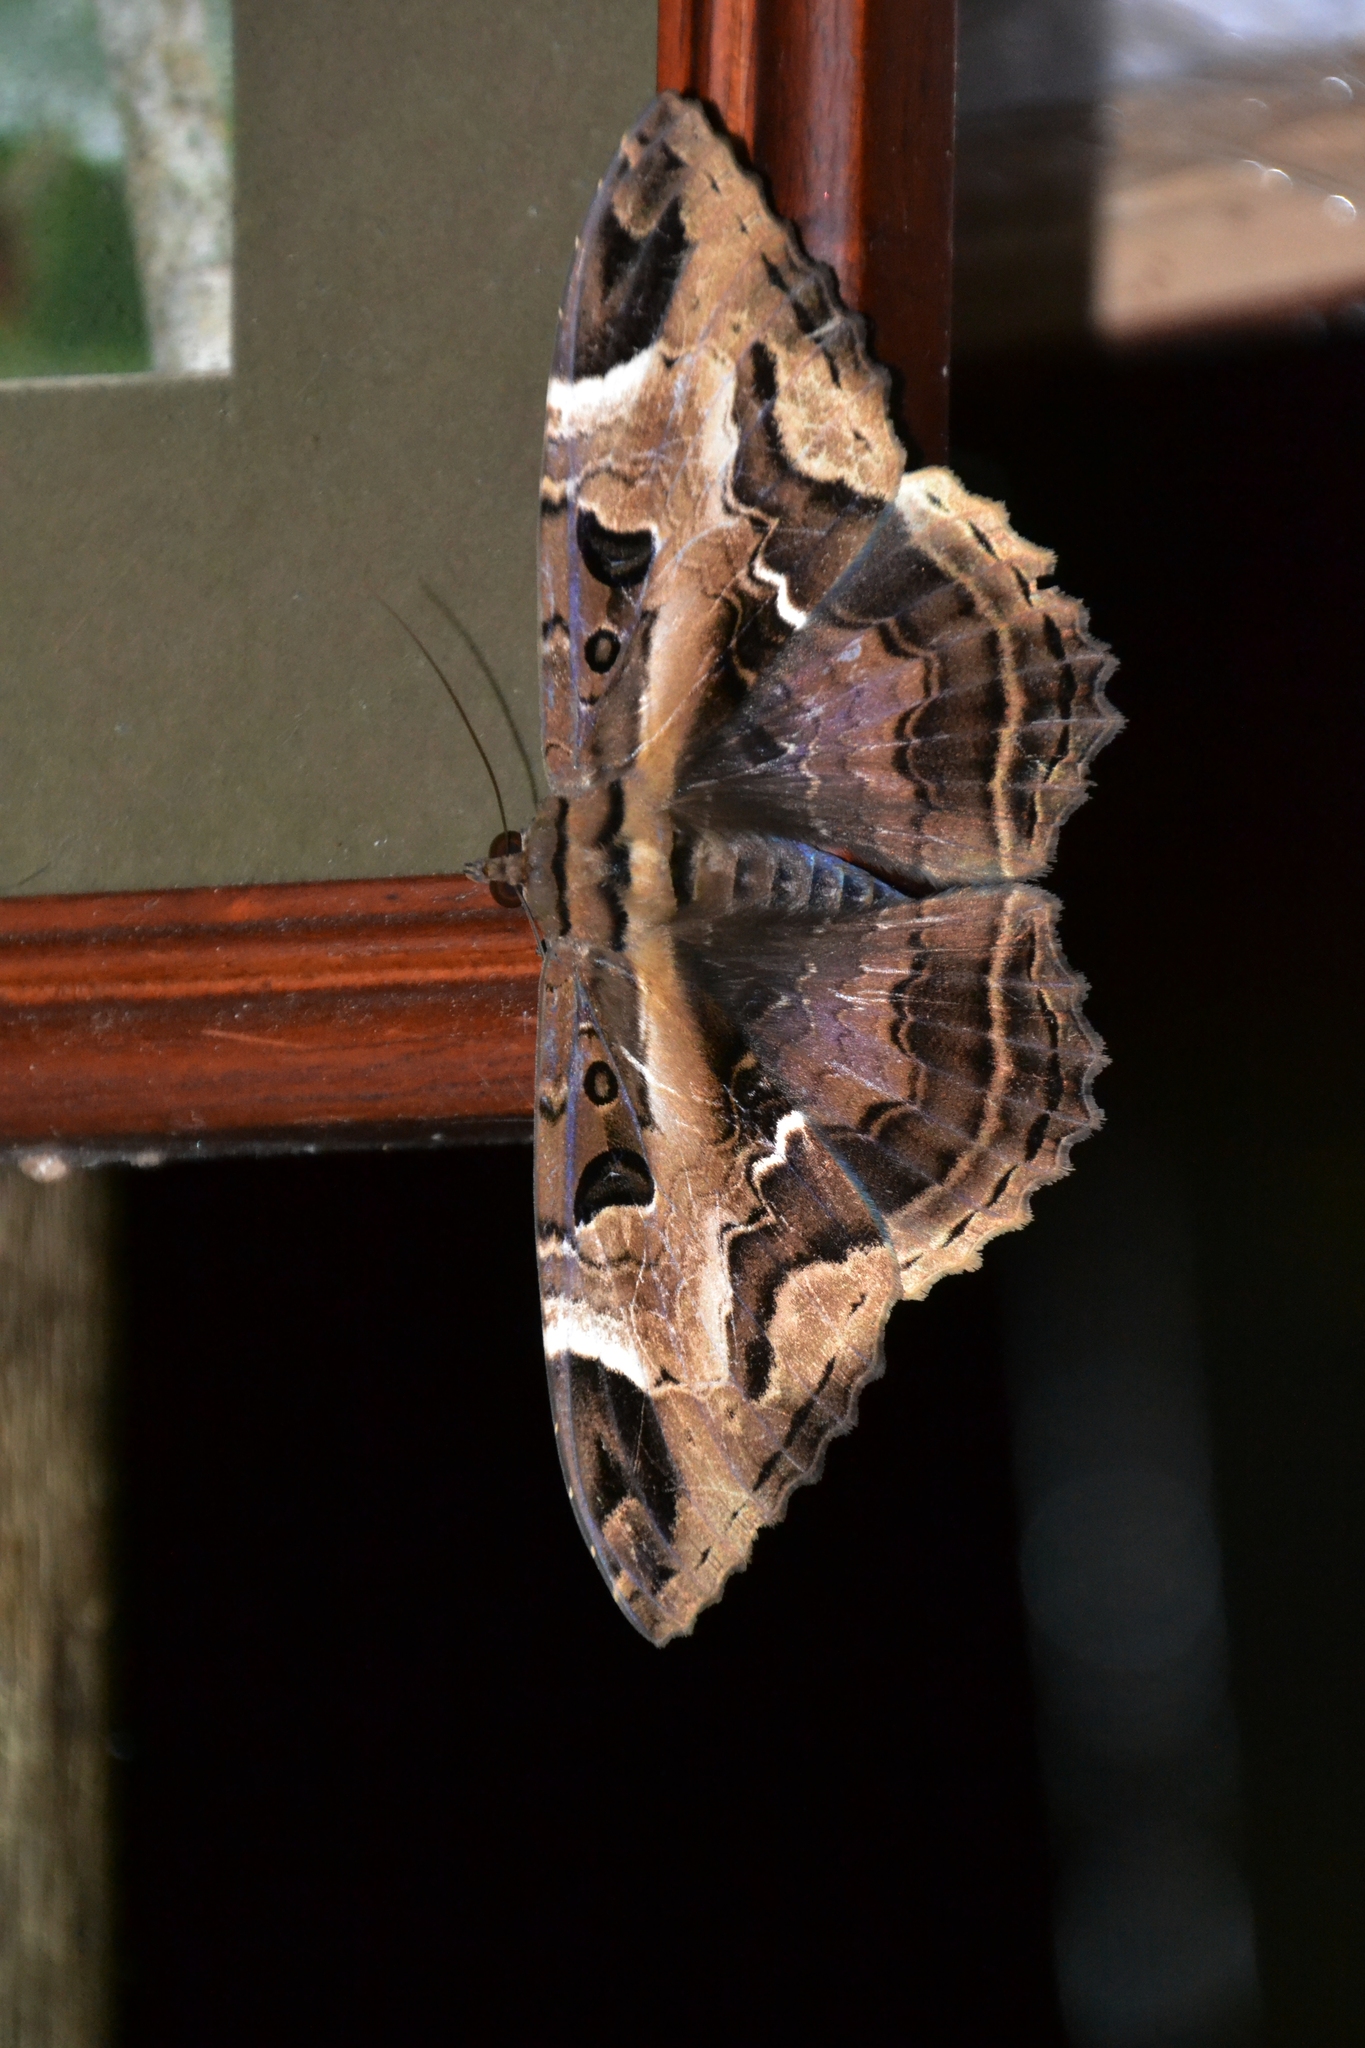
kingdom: Animalia
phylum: Arthropoda
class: Insecta
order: Lepidoptera
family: Erebidae
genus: Feigeria
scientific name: Feigeria herilia
